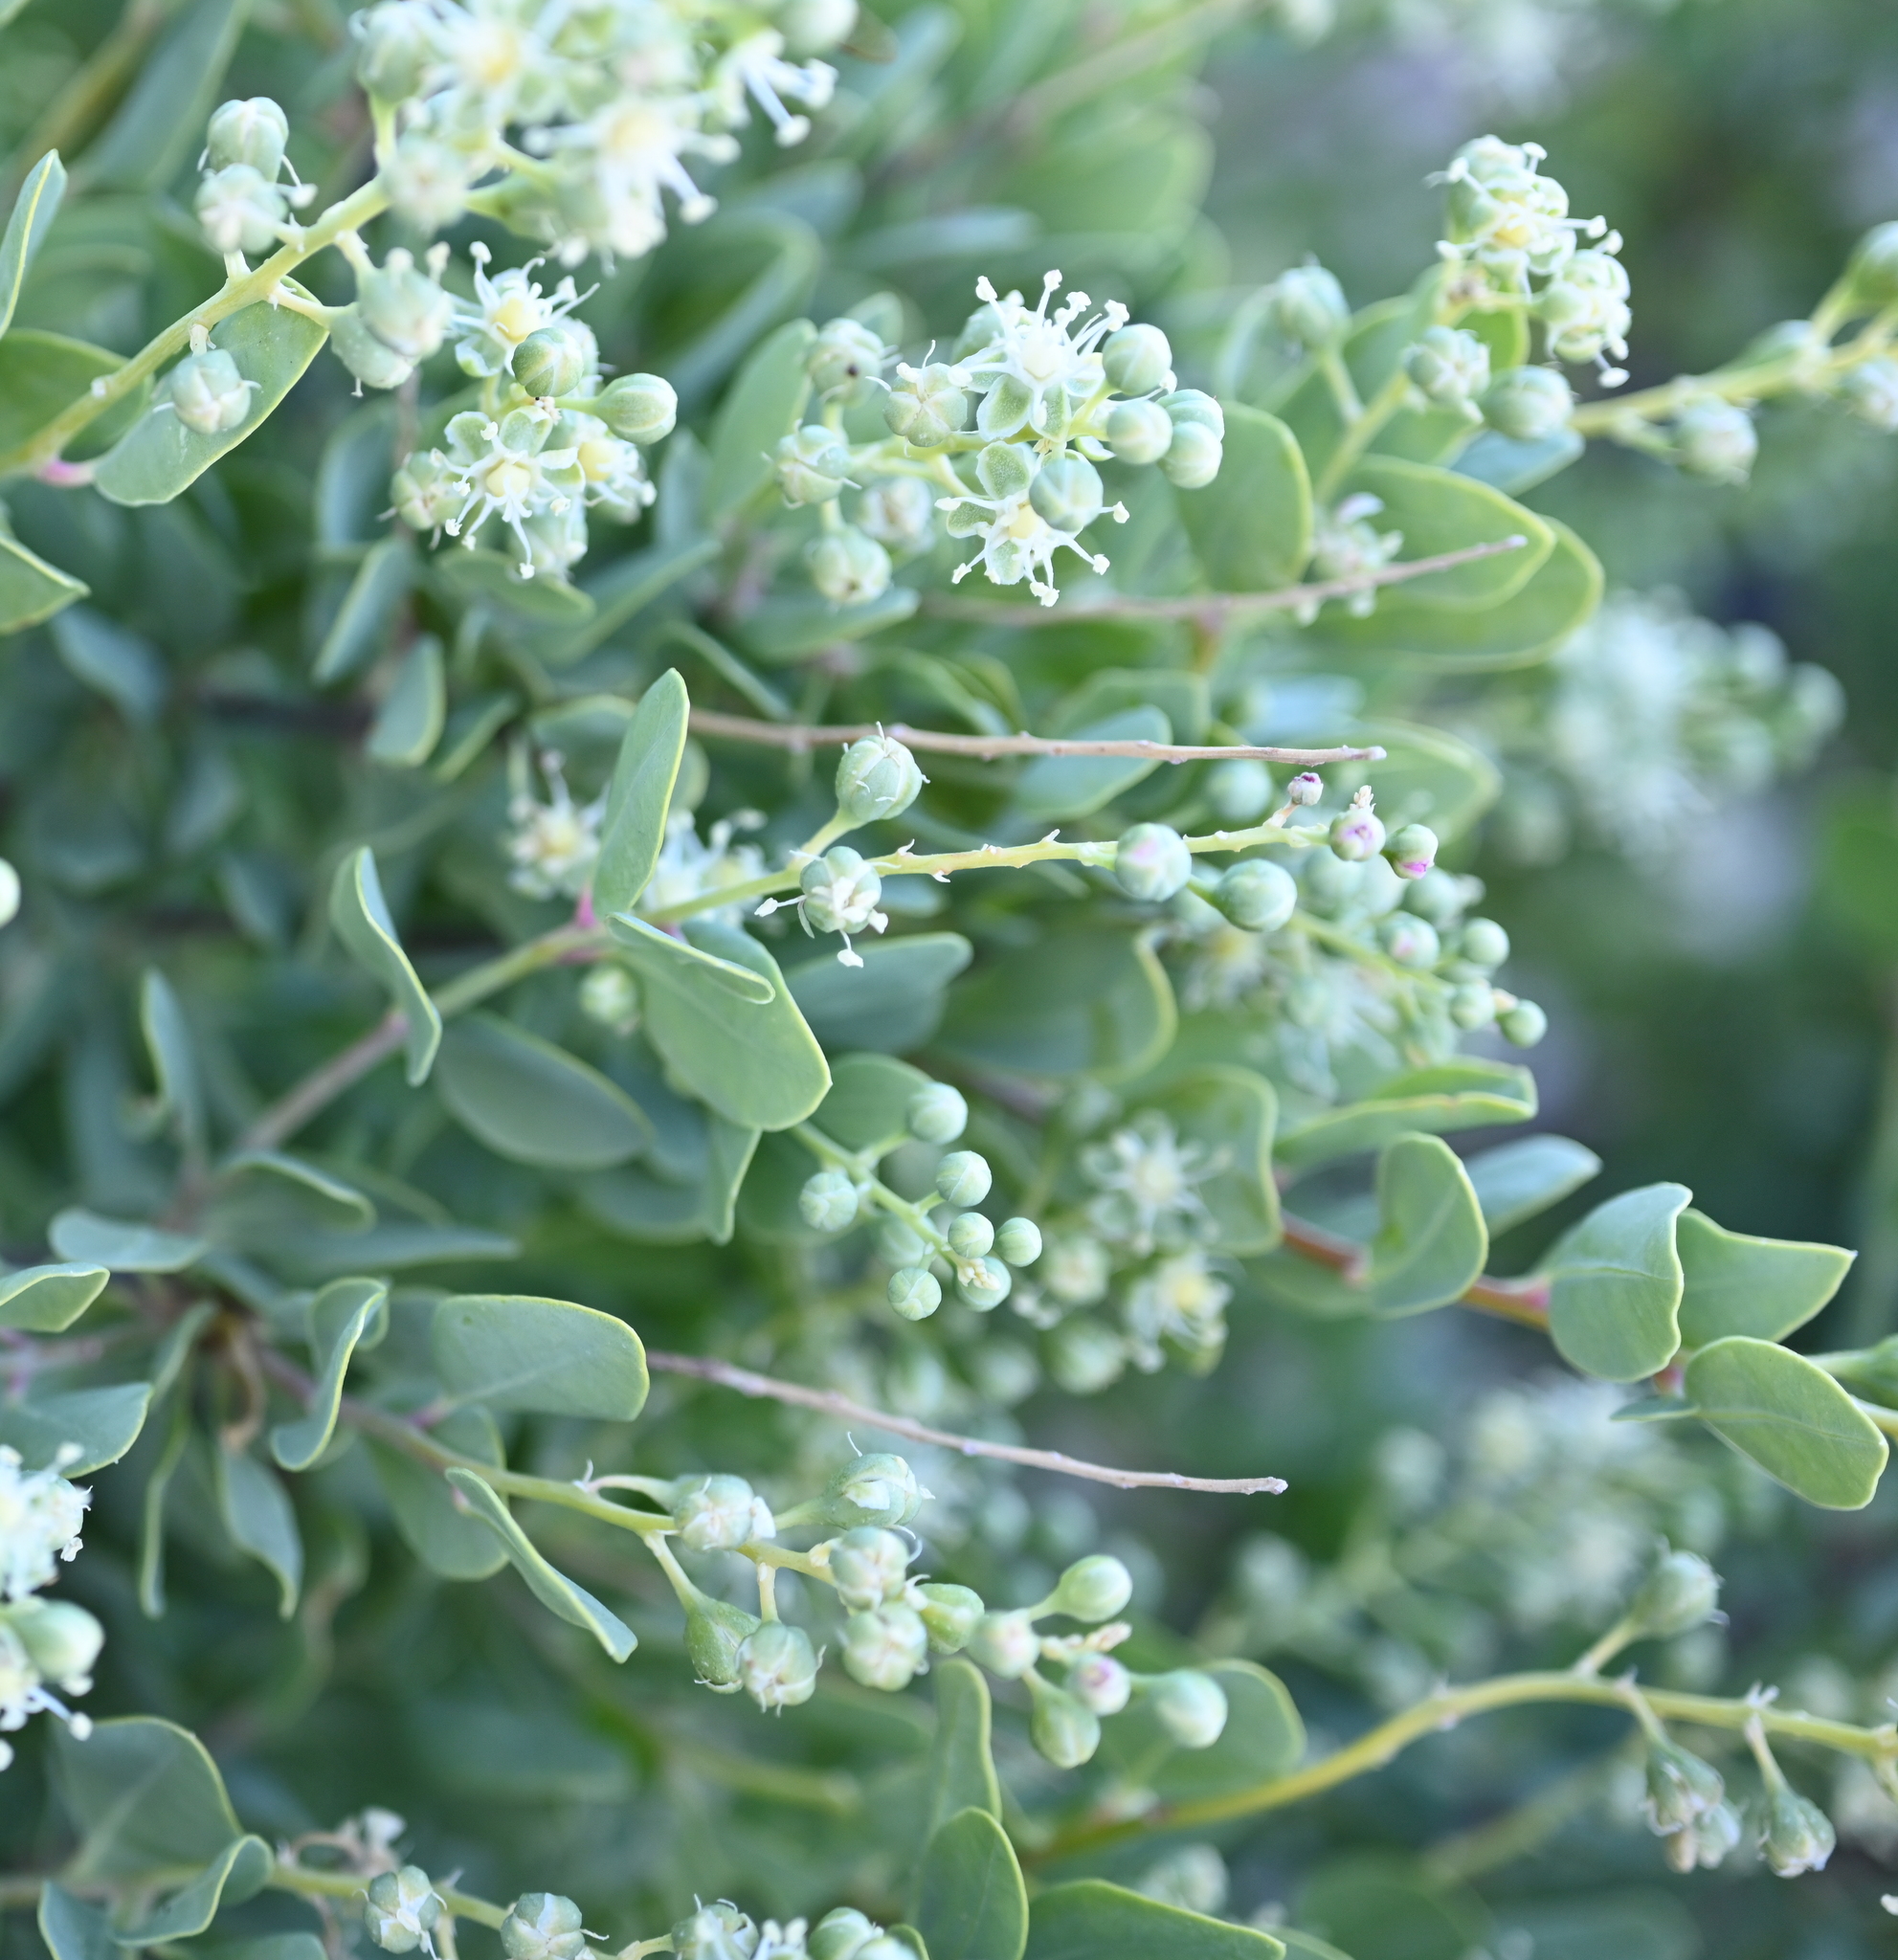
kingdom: Plantae
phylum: Tracheophyta
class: Magnoliopsida
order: Caryophyllales
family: Stegnospermataceae
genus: Stegnosperma
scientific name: Stegnosperma halimifolium
